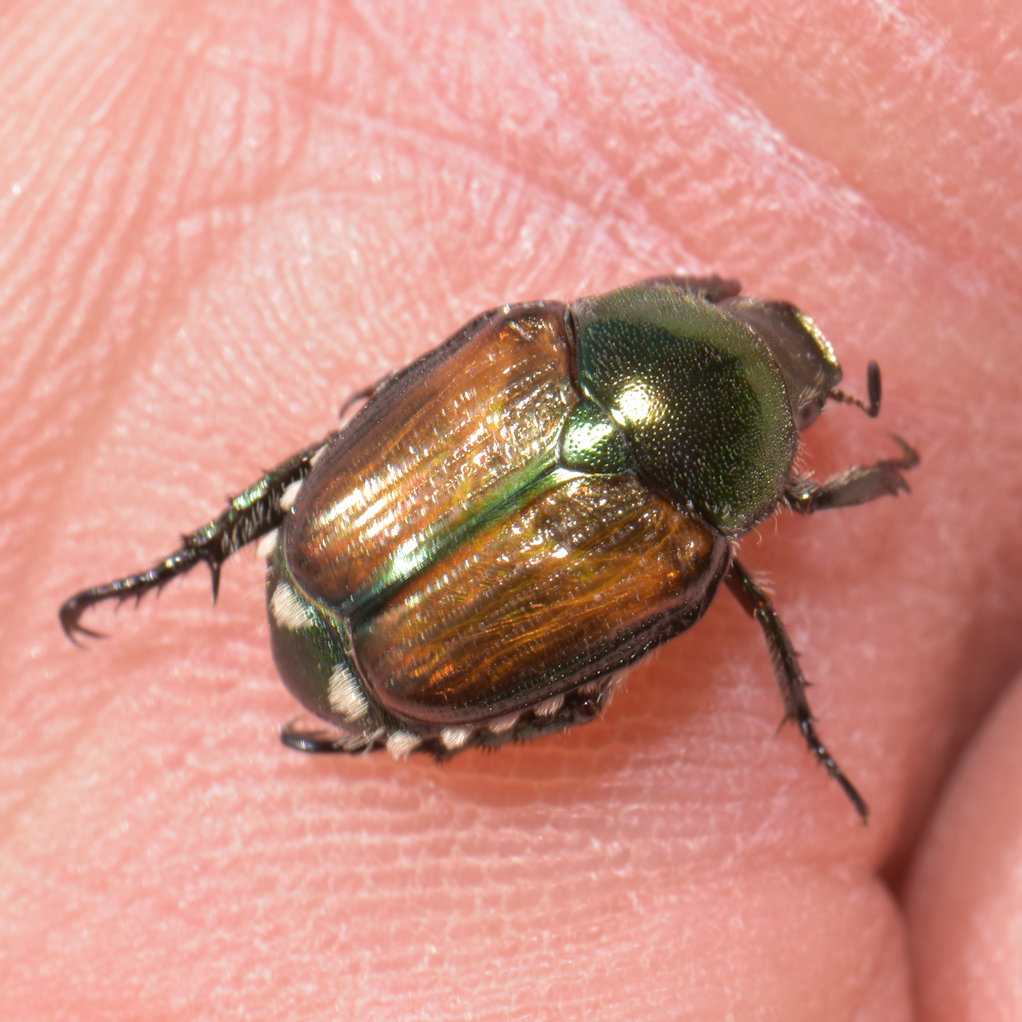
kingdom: Animalia
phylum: Arthropoda
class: Insecta
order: Coleoptera
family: Scarabaeidae
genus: Popillia
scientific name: Popillia japonica
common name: Japanese beetle
